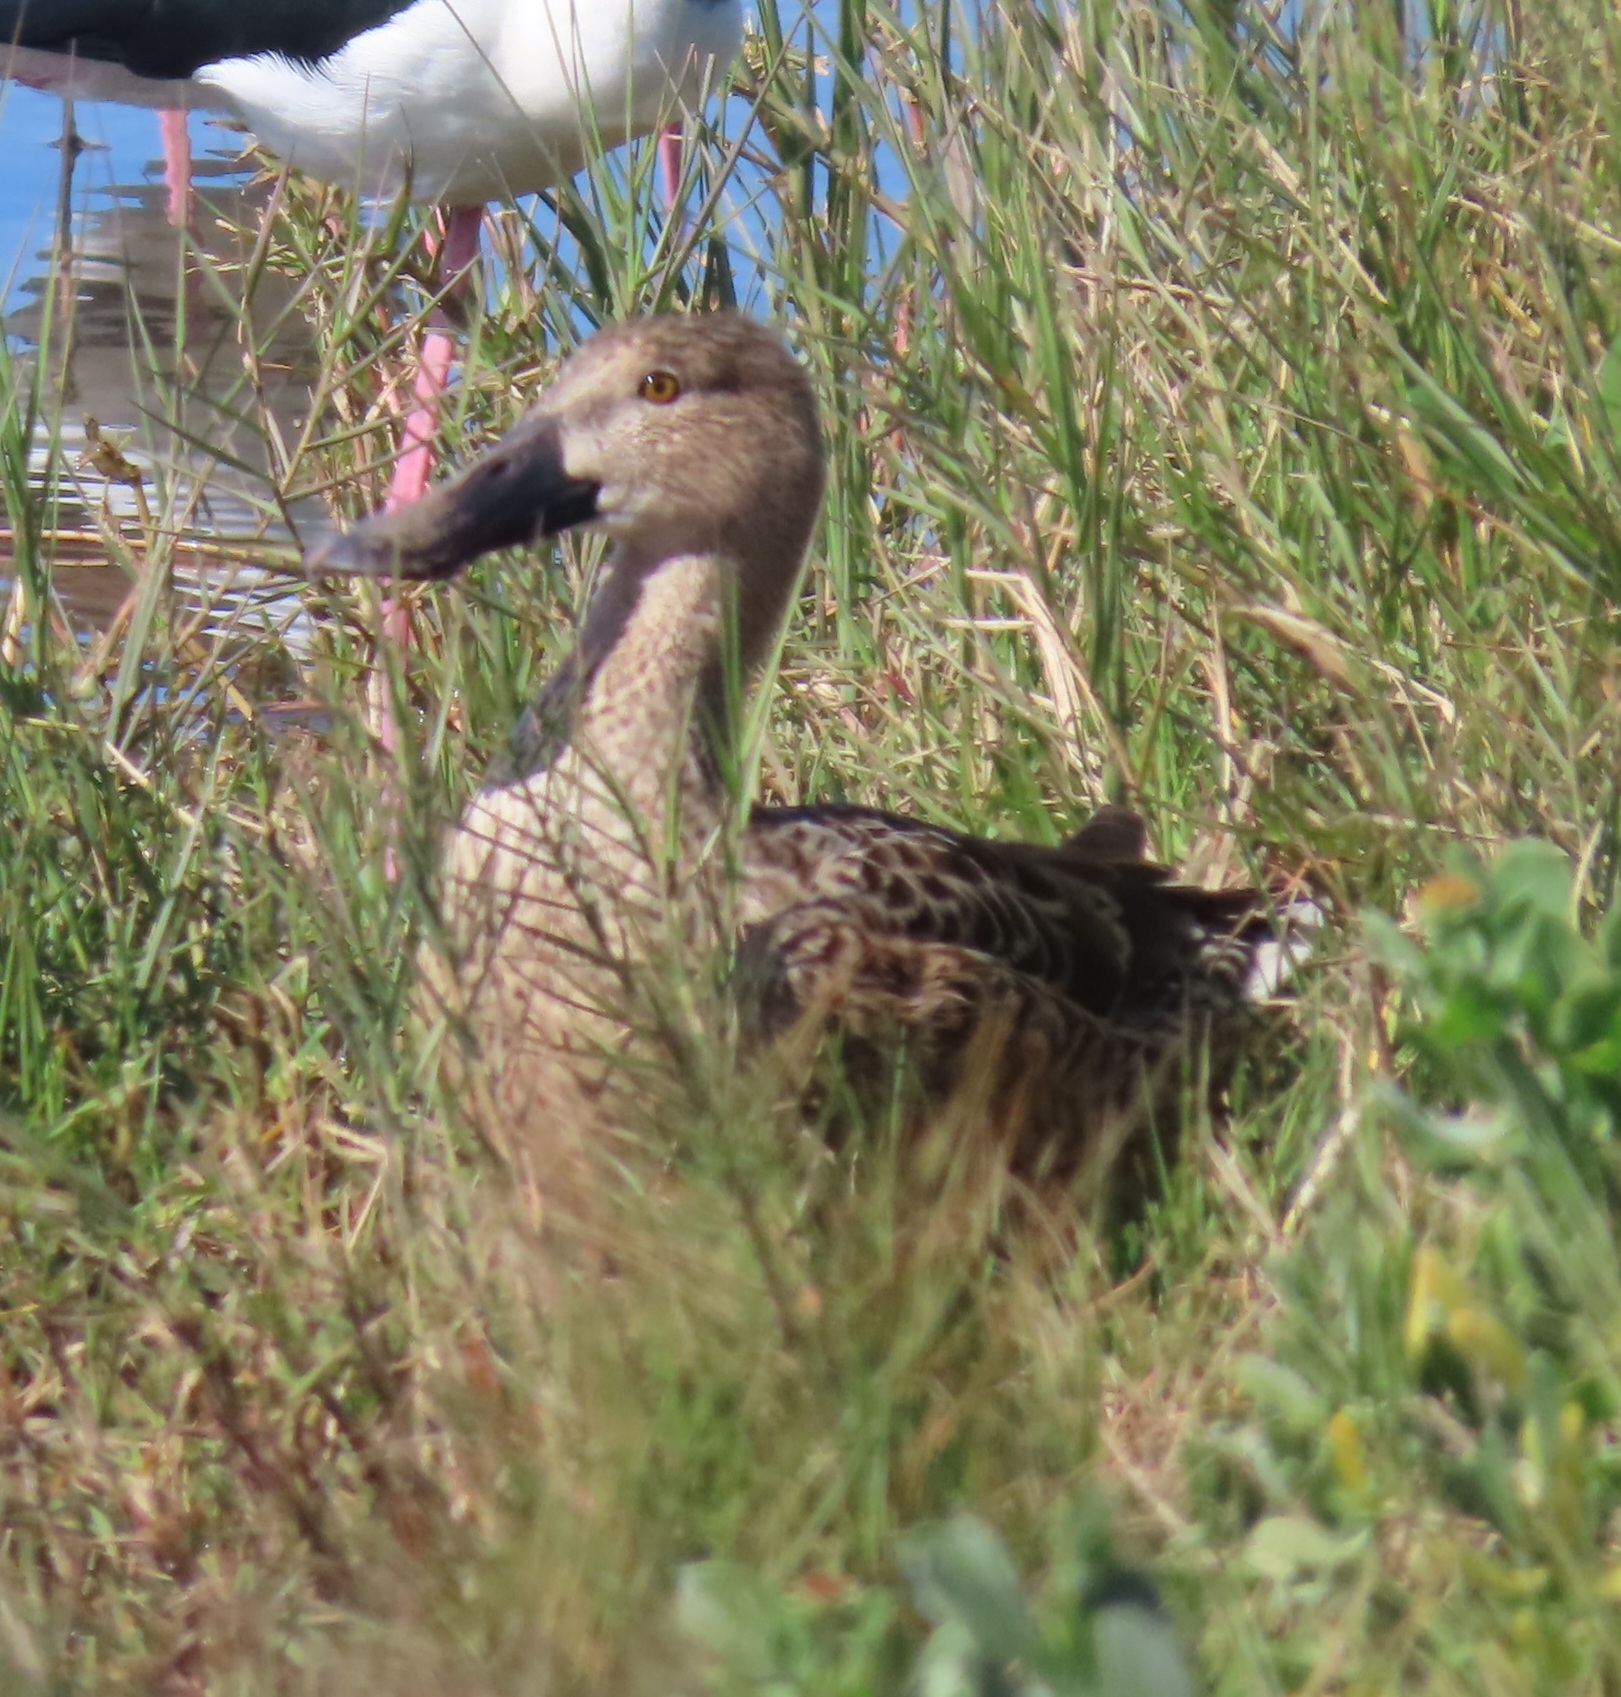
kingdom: Animalia
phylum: Chordata
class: Aves
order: Anseriformes
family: Anatidae
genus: Spatula
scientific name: Spatula clypeata
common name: Northern shoveler
